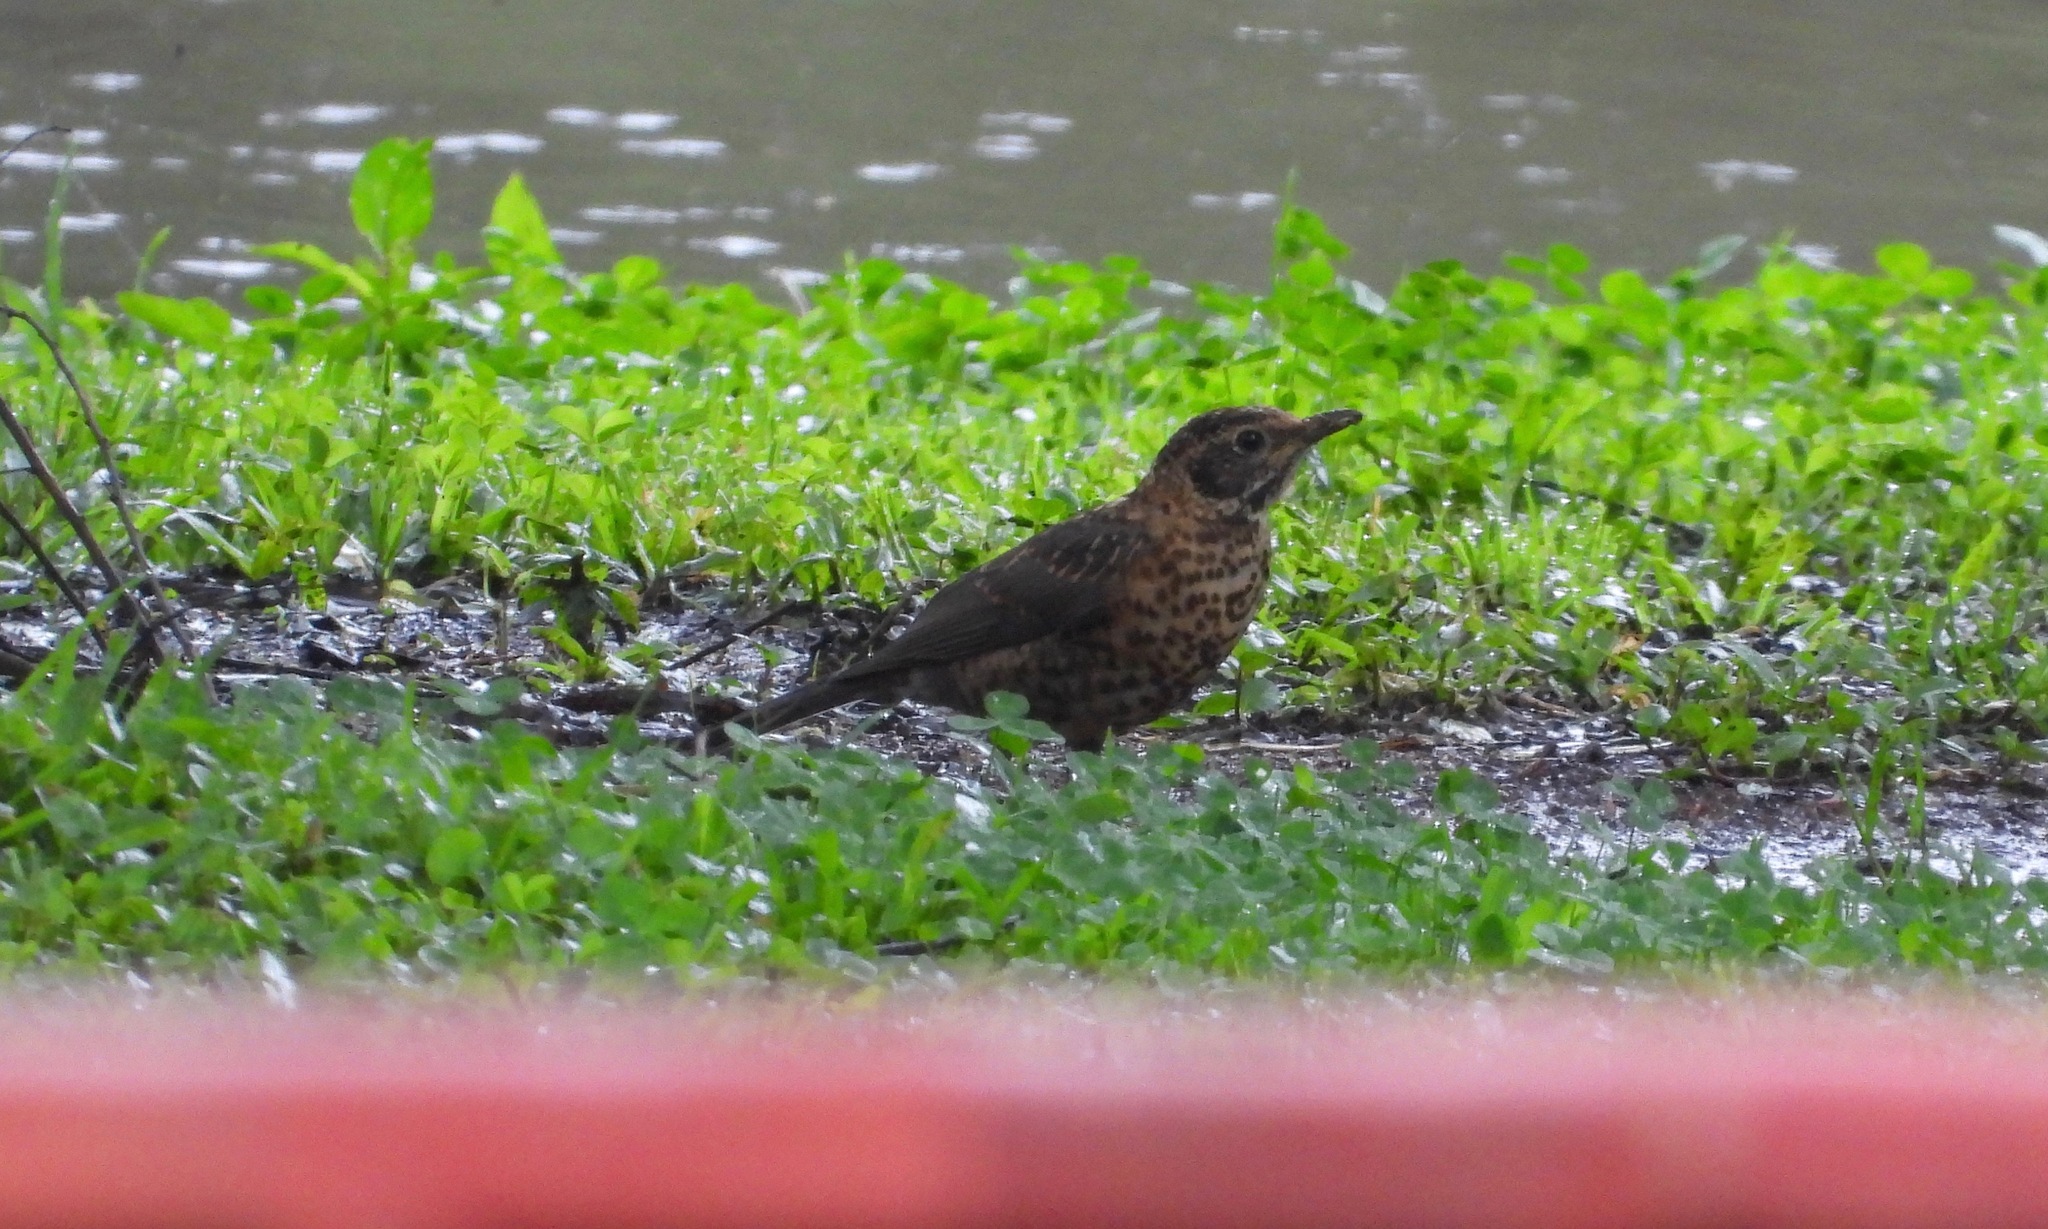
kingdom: Animalia
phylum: Chordata
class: Aves
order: Passeriformes
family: Turdidae
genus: Turdus
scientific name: Turdus rufitorques
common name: Rufous-collared thrush
